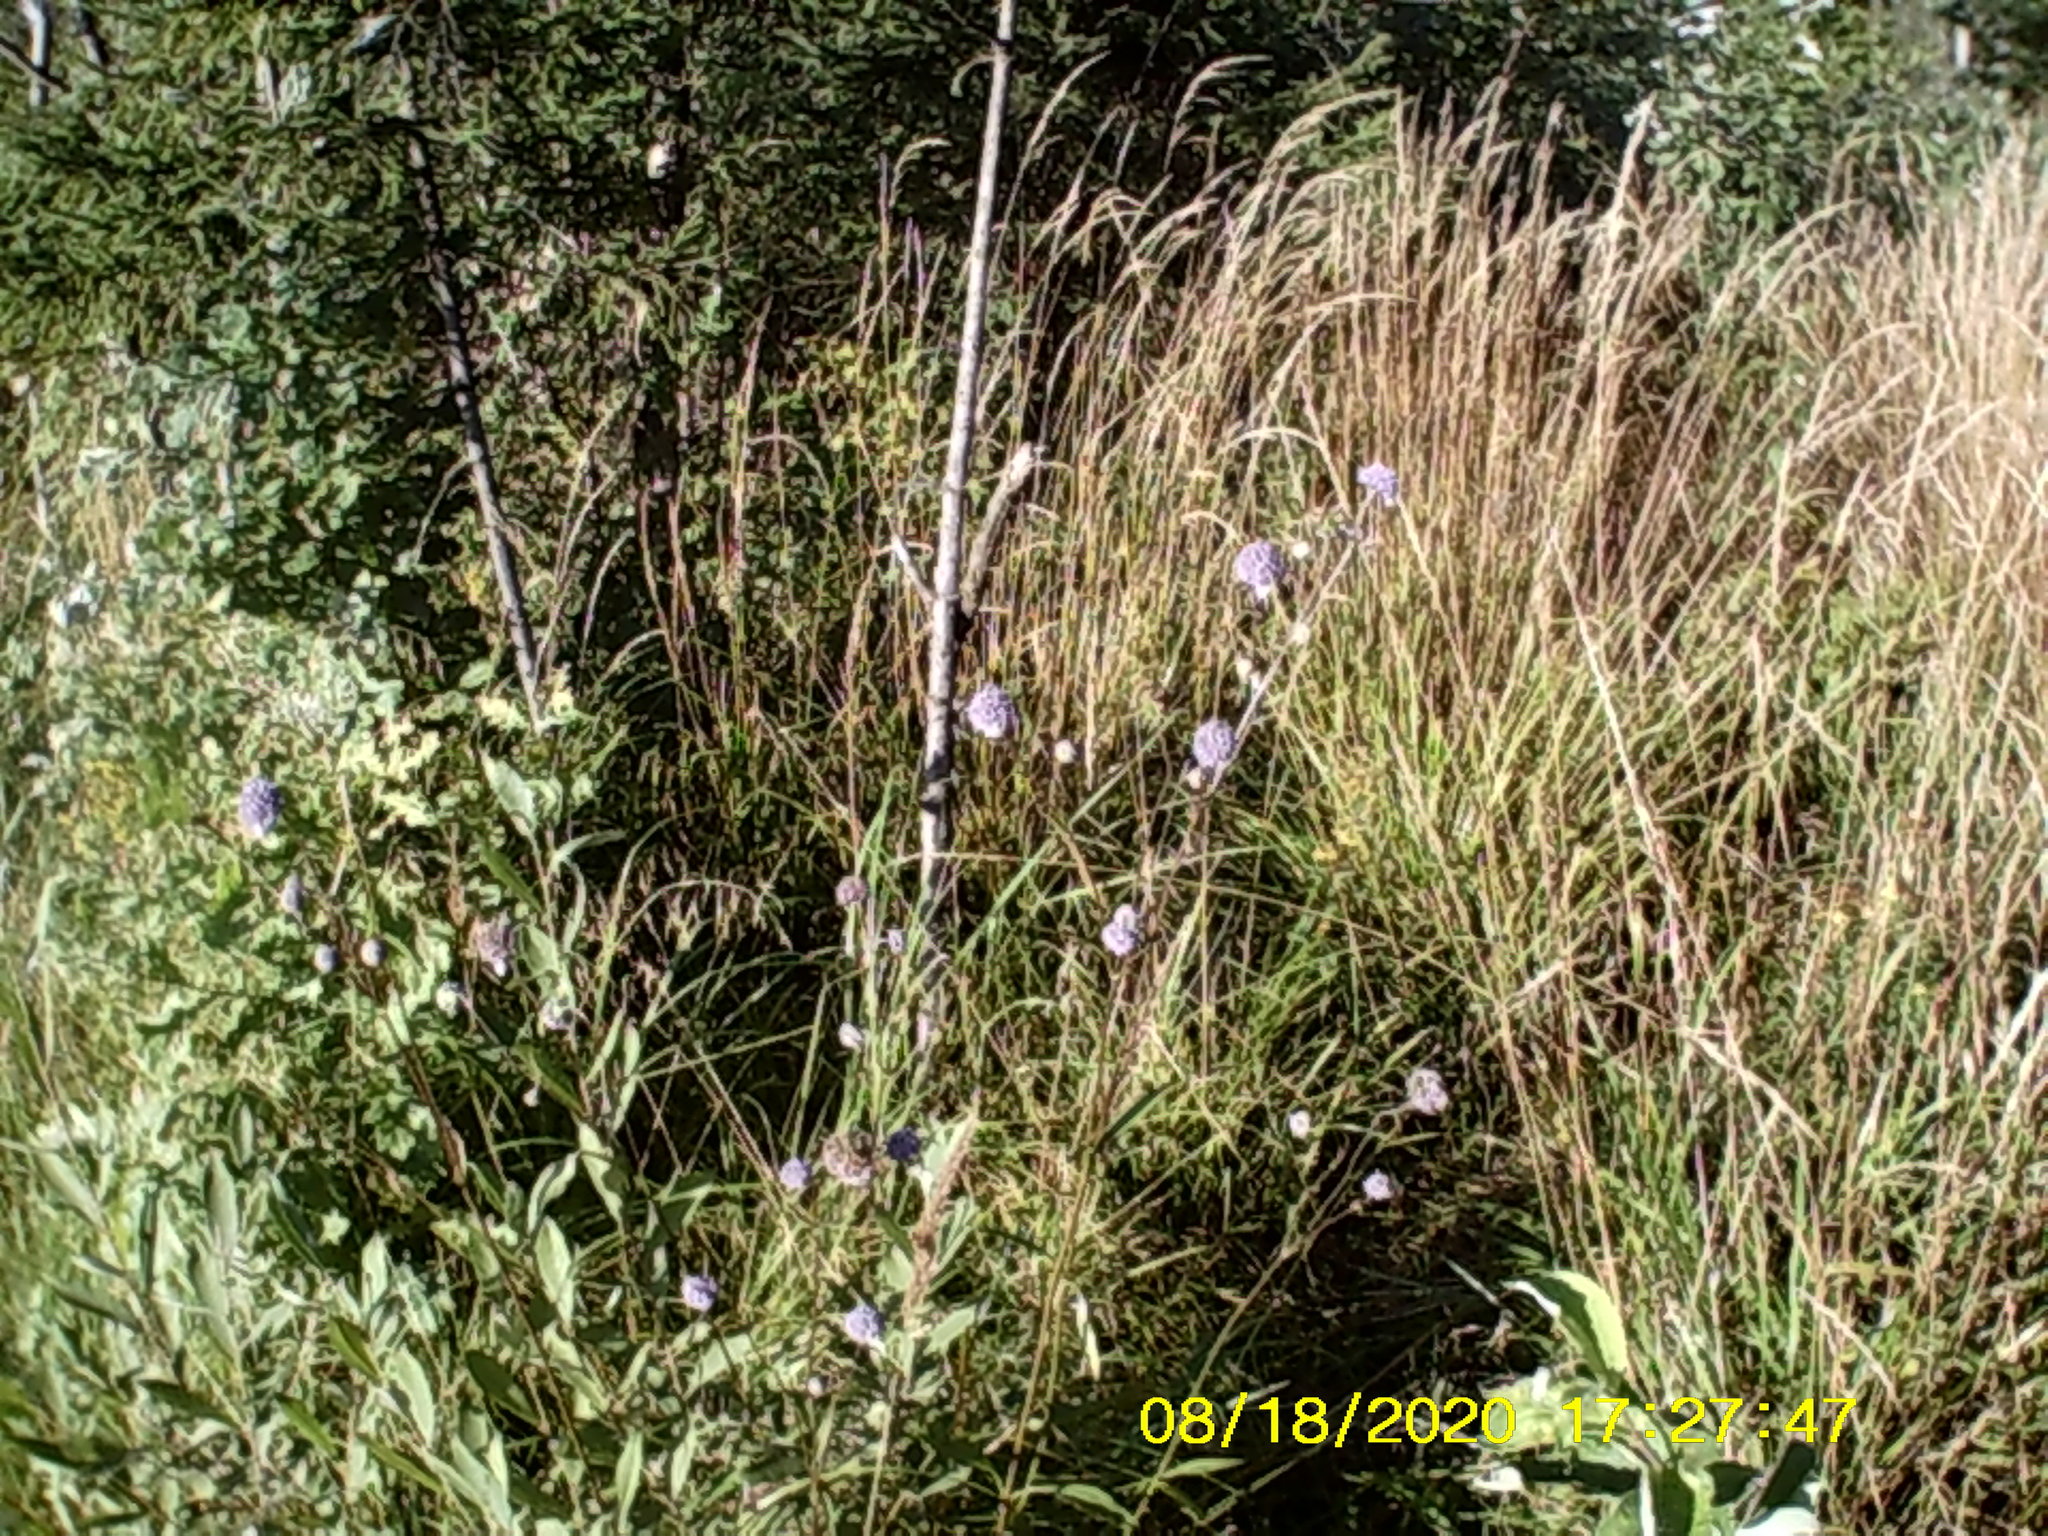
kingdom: Plantae
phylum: Tracheophyta
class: Magnoliopsida
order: Dipsacales
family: Caprifoliaceae
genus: Succisa
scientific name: Succisa pratensis
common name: Devil's-bit
